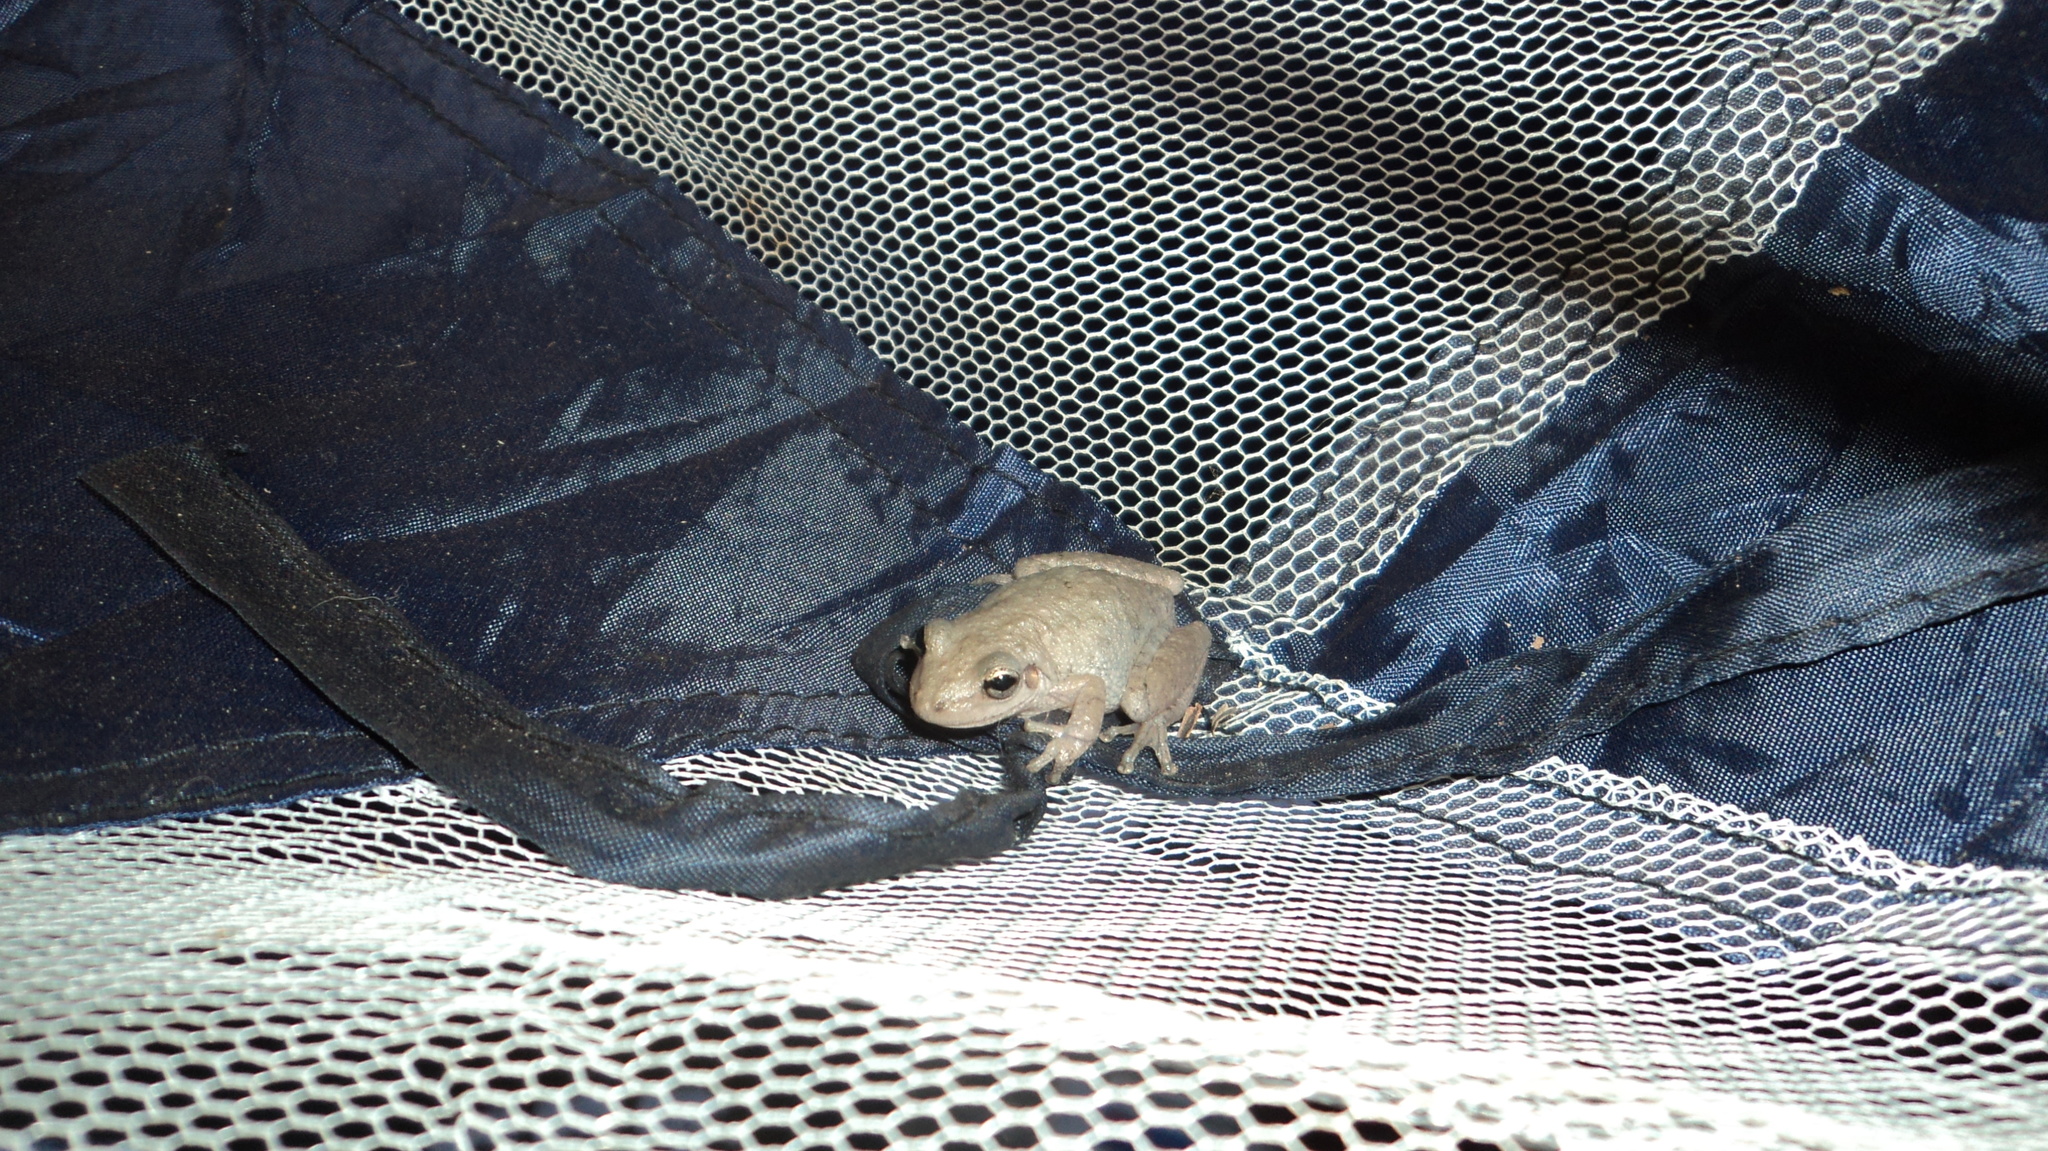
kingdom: Animalia
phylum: Chordata
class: Amphibia
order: Anura
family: Hylidae
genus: Scinax
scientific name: Scinax ruber
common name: Red snouted treefrog
